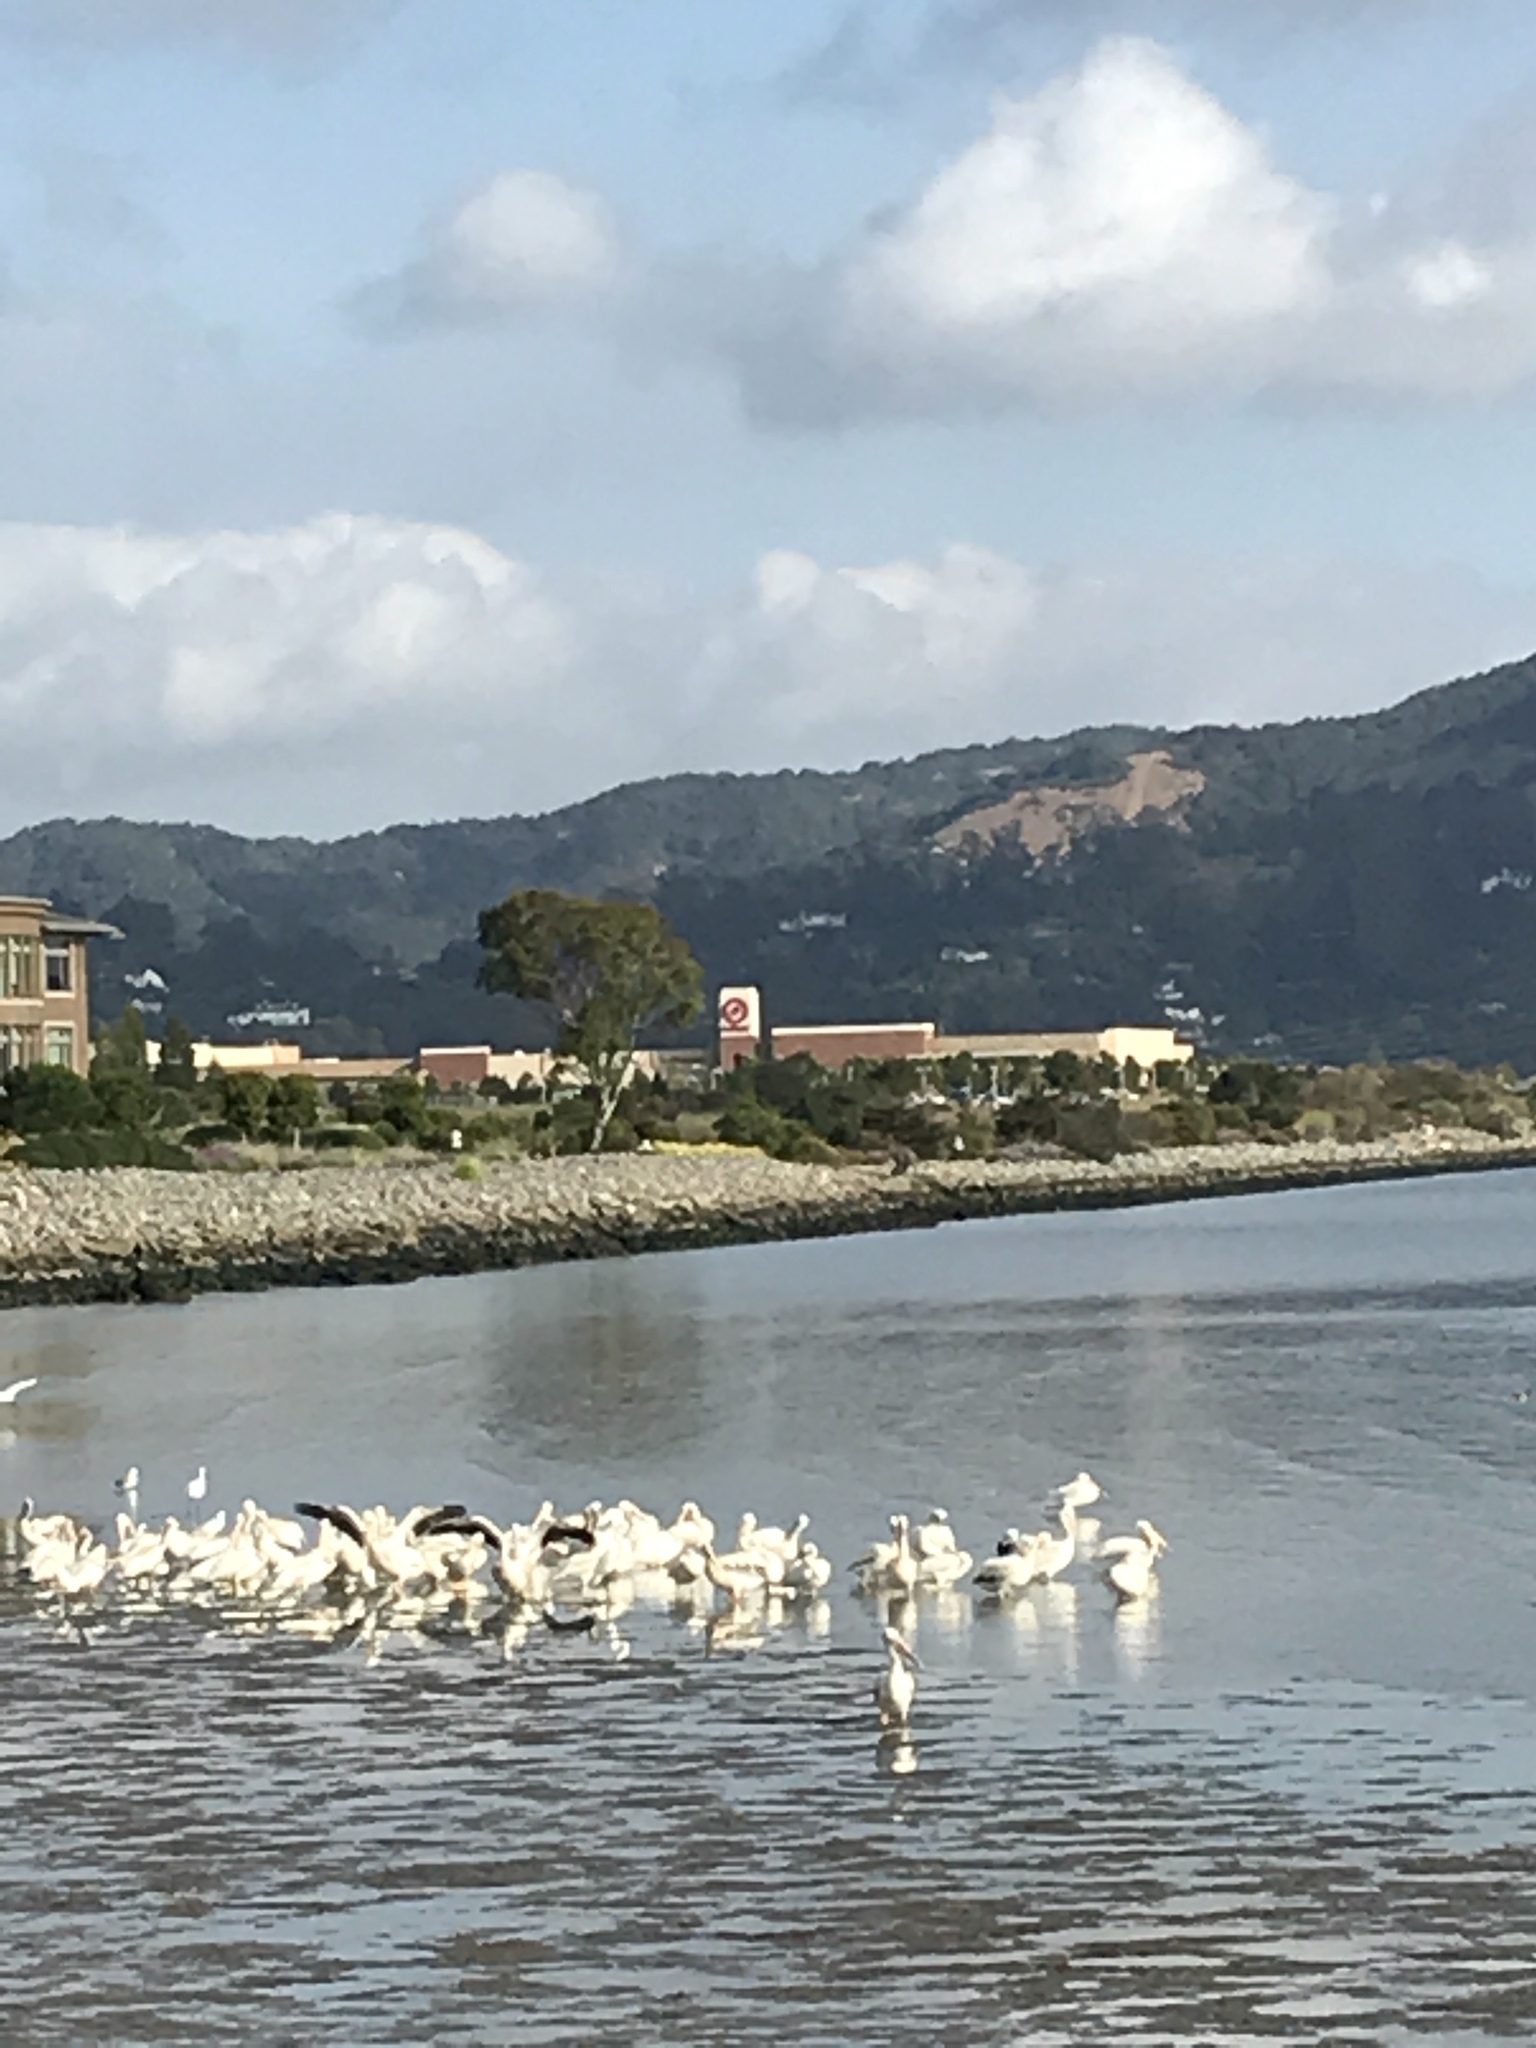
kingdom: Animalia
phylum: Chordata
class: Aves
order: Pelecaniformes
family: Pelecanidae
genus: Pelecanus
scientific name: Pelecanus erythrorhynchos
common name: American white pelican
